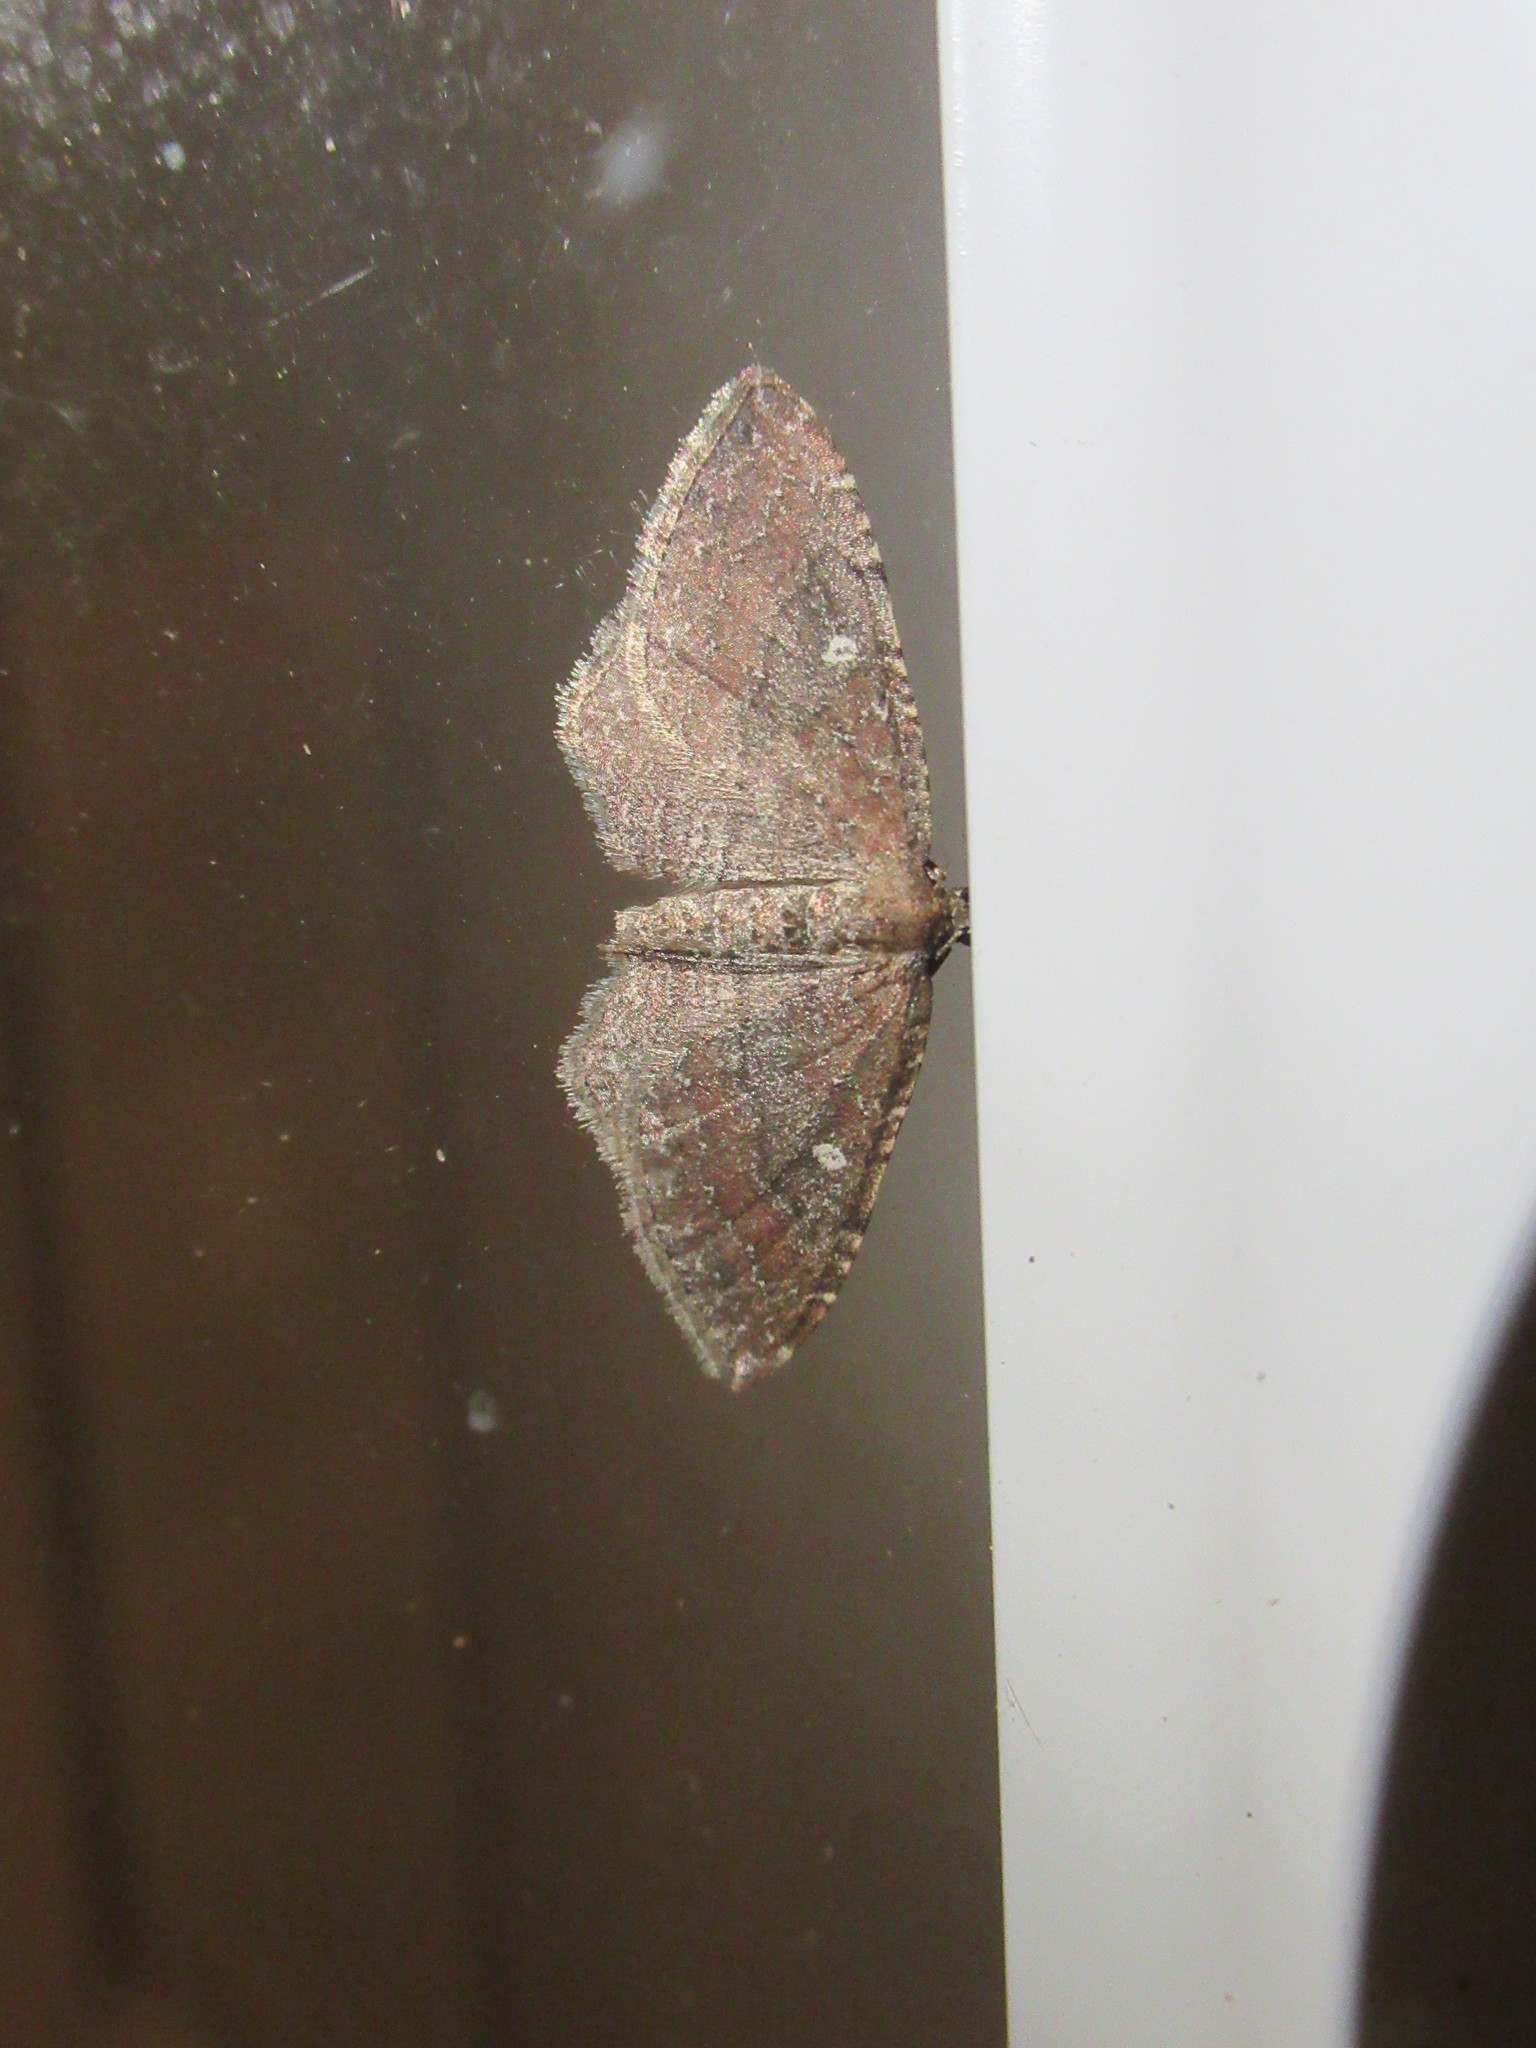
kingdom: Animalia
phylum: Arthropoda
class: Insecta
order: Lepidoptera
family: Geometridae
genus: Orthonama
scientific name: Orthonama obstipata
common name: The gem
